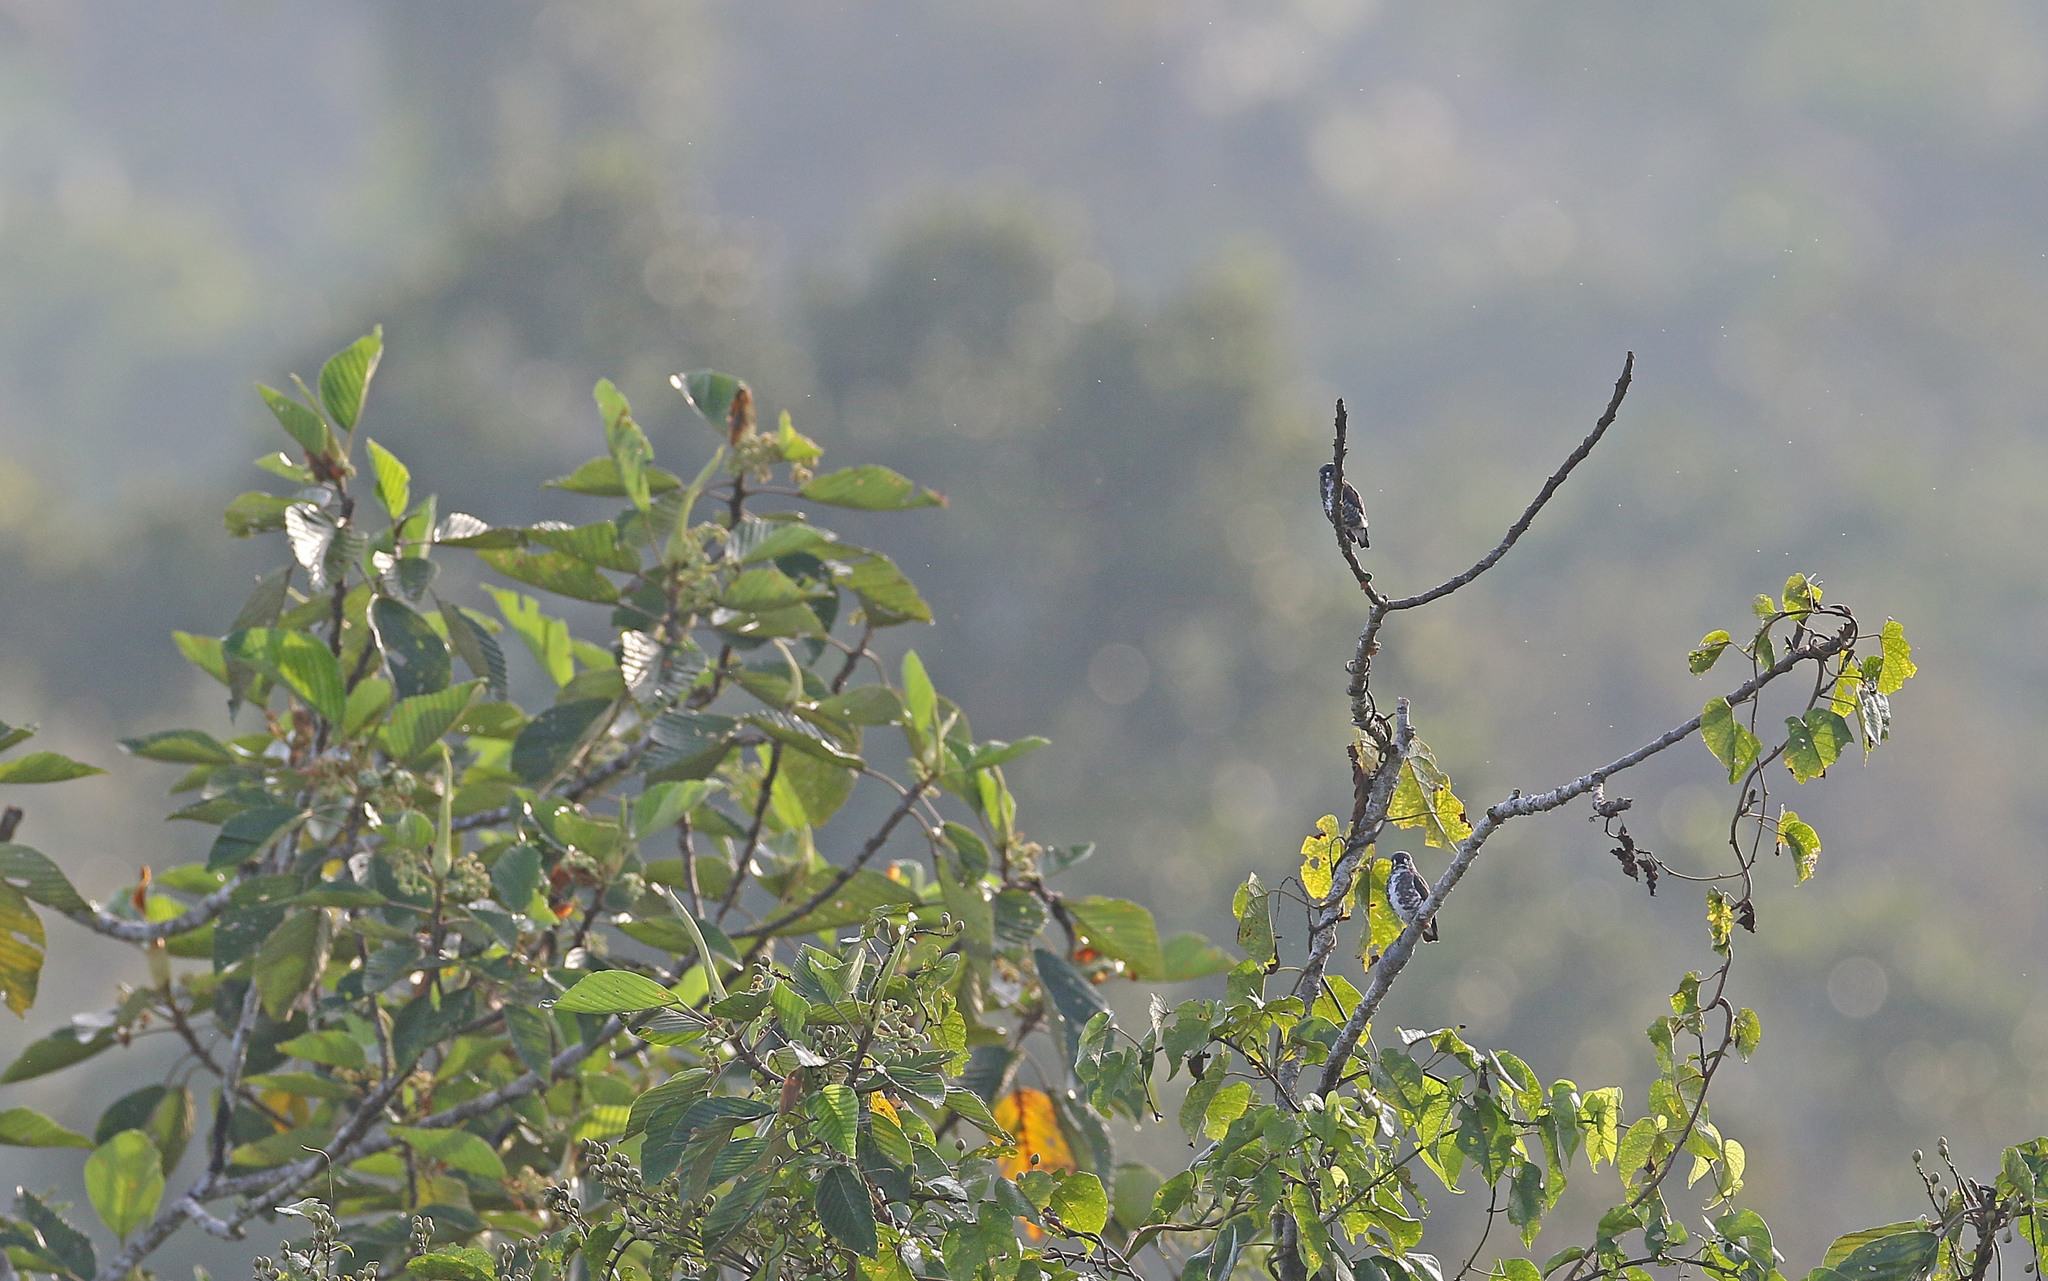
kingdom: Animalia
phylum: Chordata
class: Aves
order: Passeriformes
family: Cotingidae
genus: Iodopleura
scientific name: Iodopleura isabellae
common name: White-browed purpletuft
